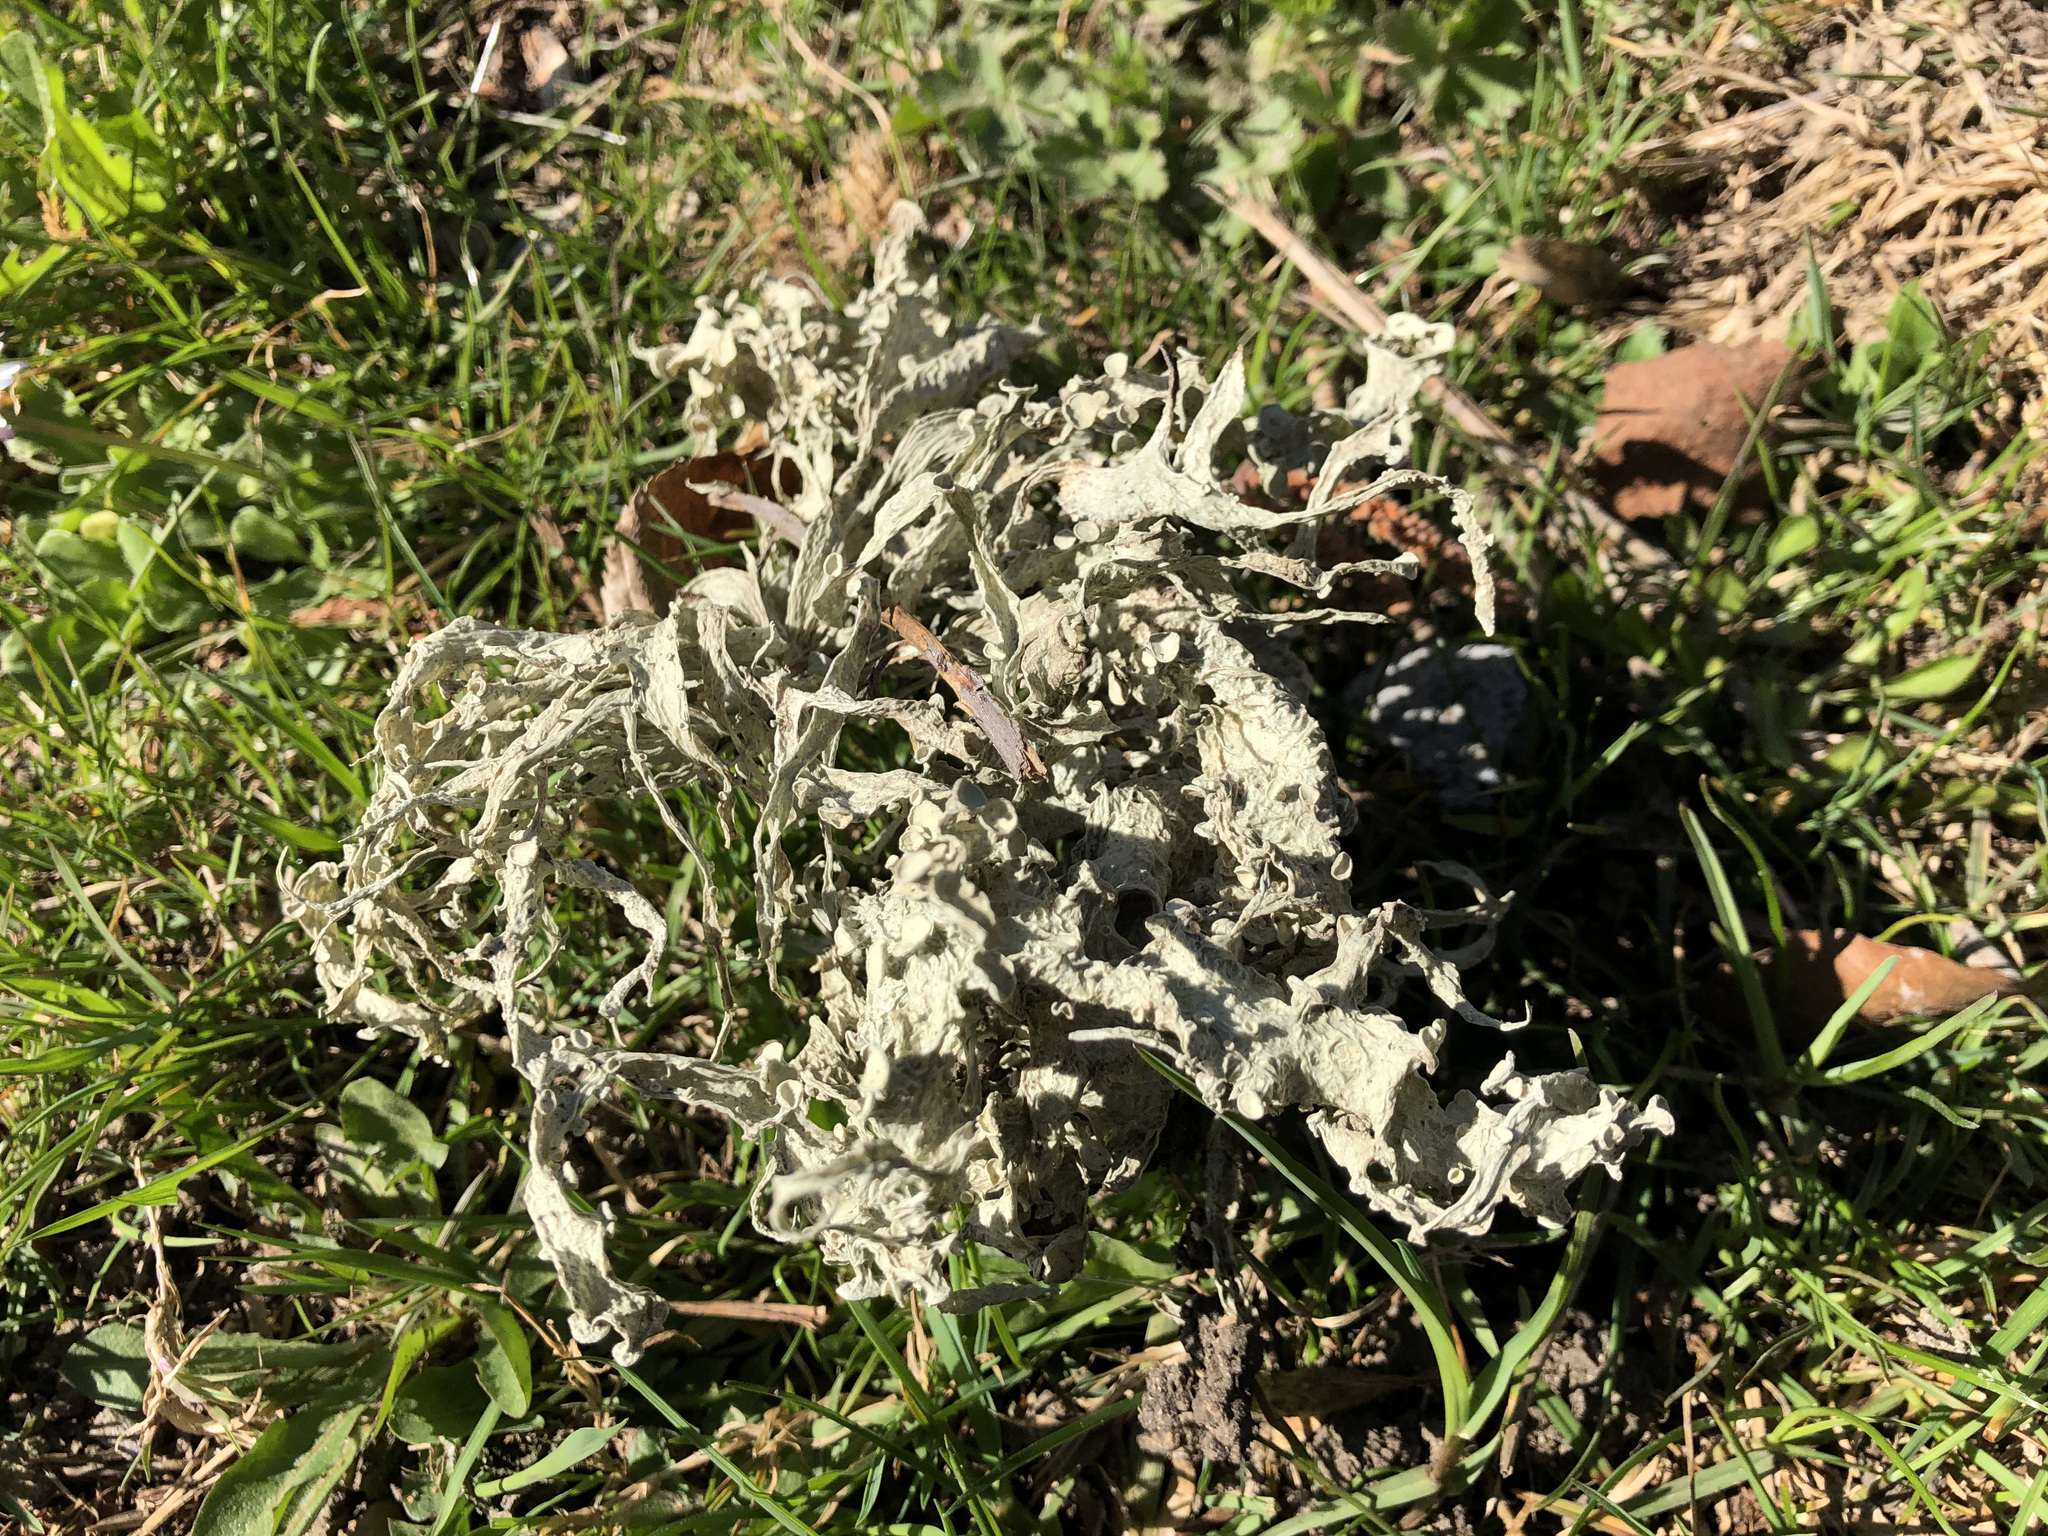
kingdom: Fungi
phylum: Ascomycota
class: Lecanoromycetes
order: Lecanorales
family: Ramalinaceae
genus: Ramalina
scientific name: Ramalina fraxinea
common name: Cartilage lichen
